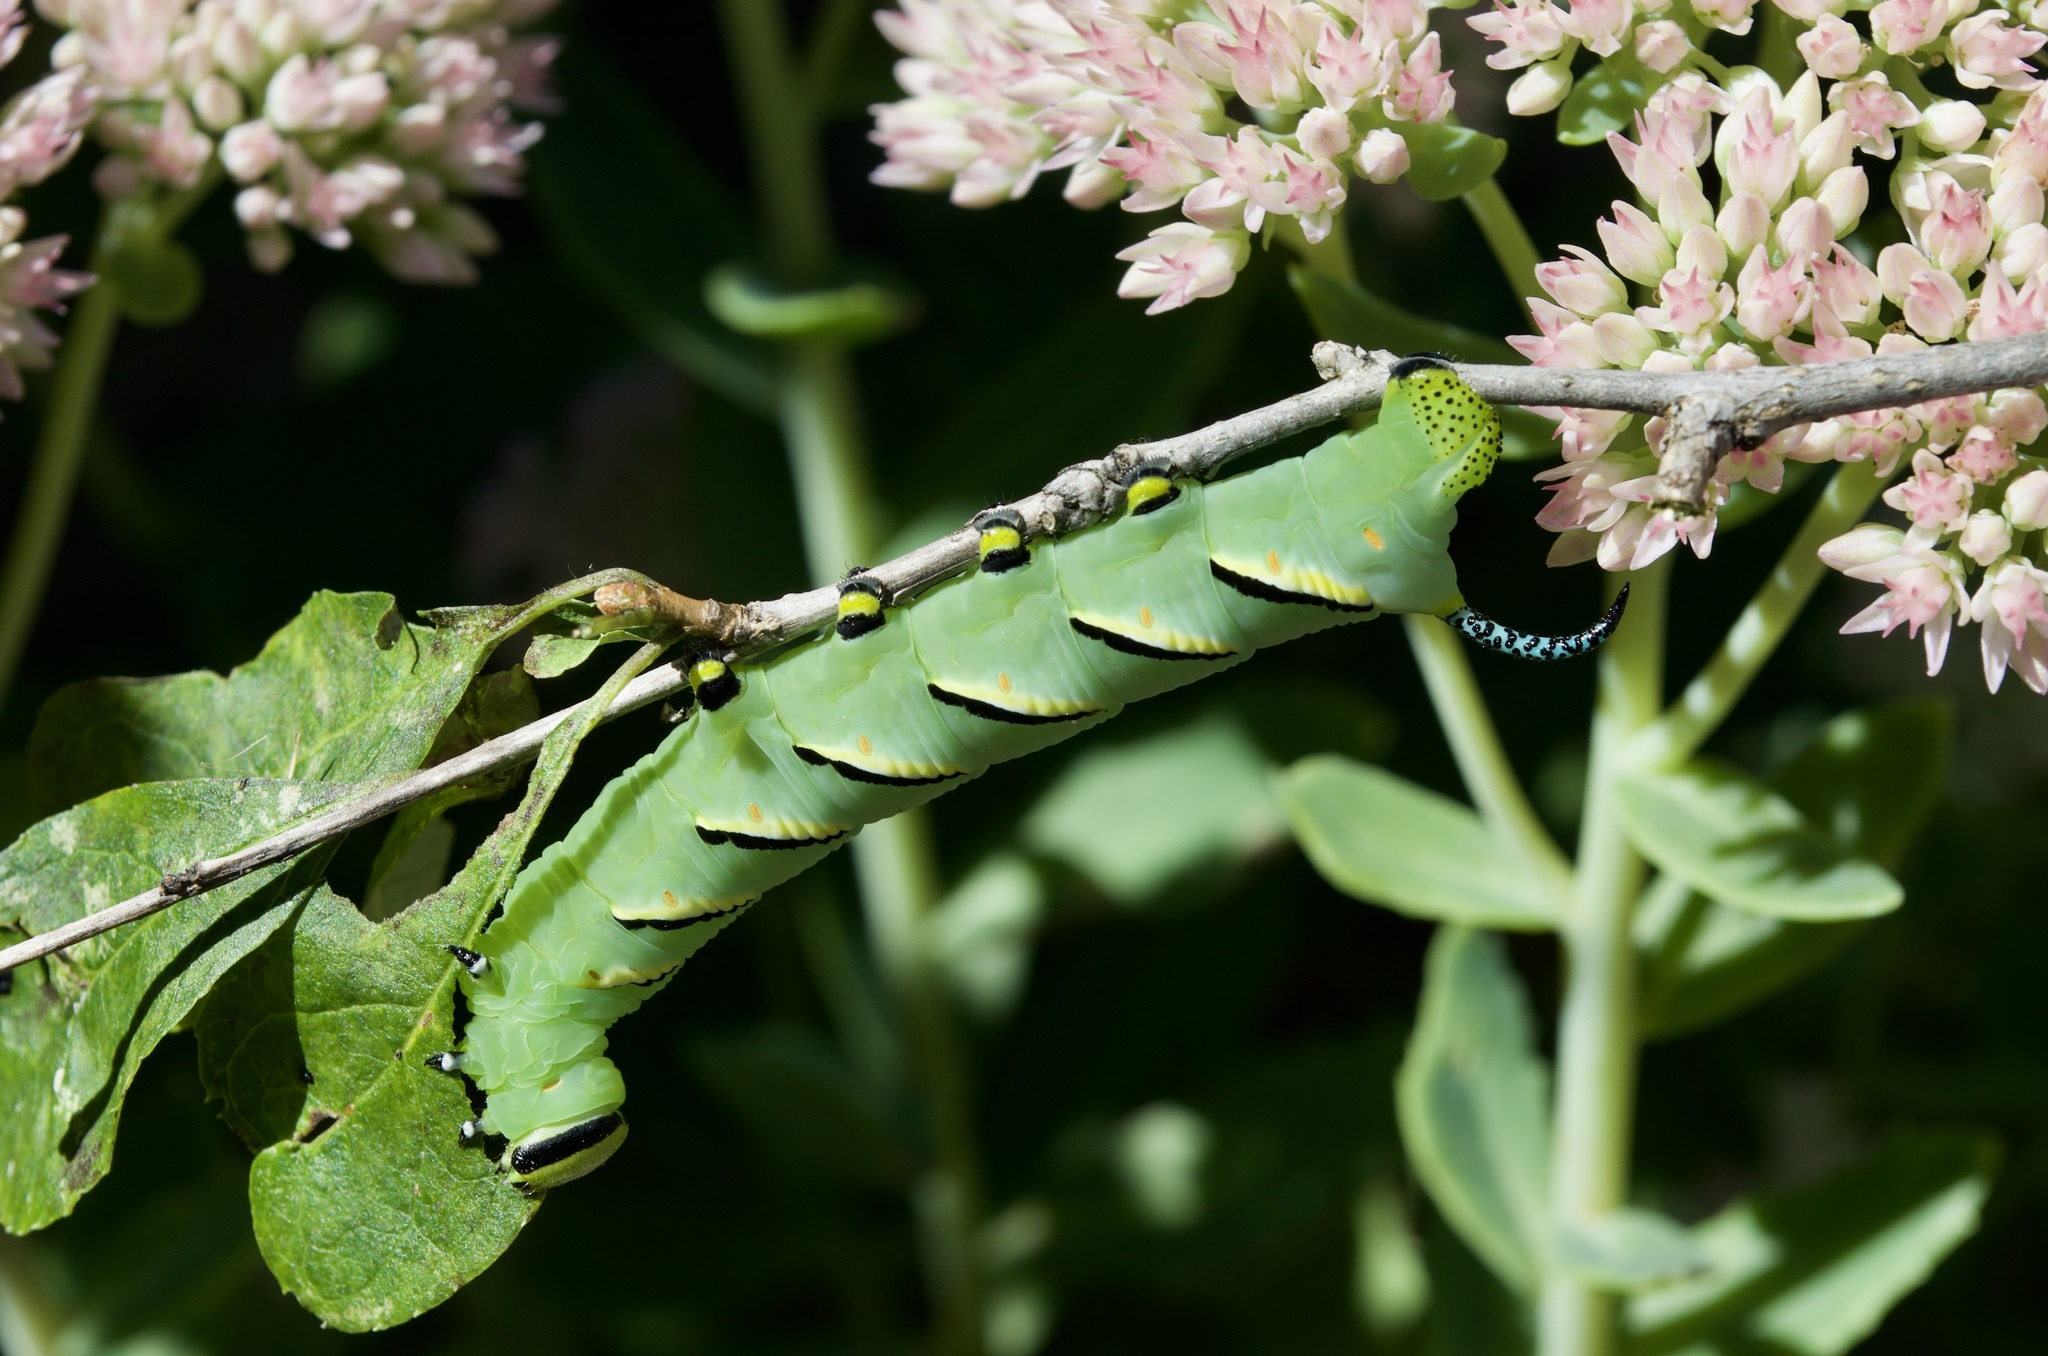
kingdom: Animalia
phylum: Arthropoda
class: Insecta
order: Lepidoptera
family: Sphingidae
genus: Sphinx
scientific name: Sphinx kalmiae
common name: Laurel sphinx
